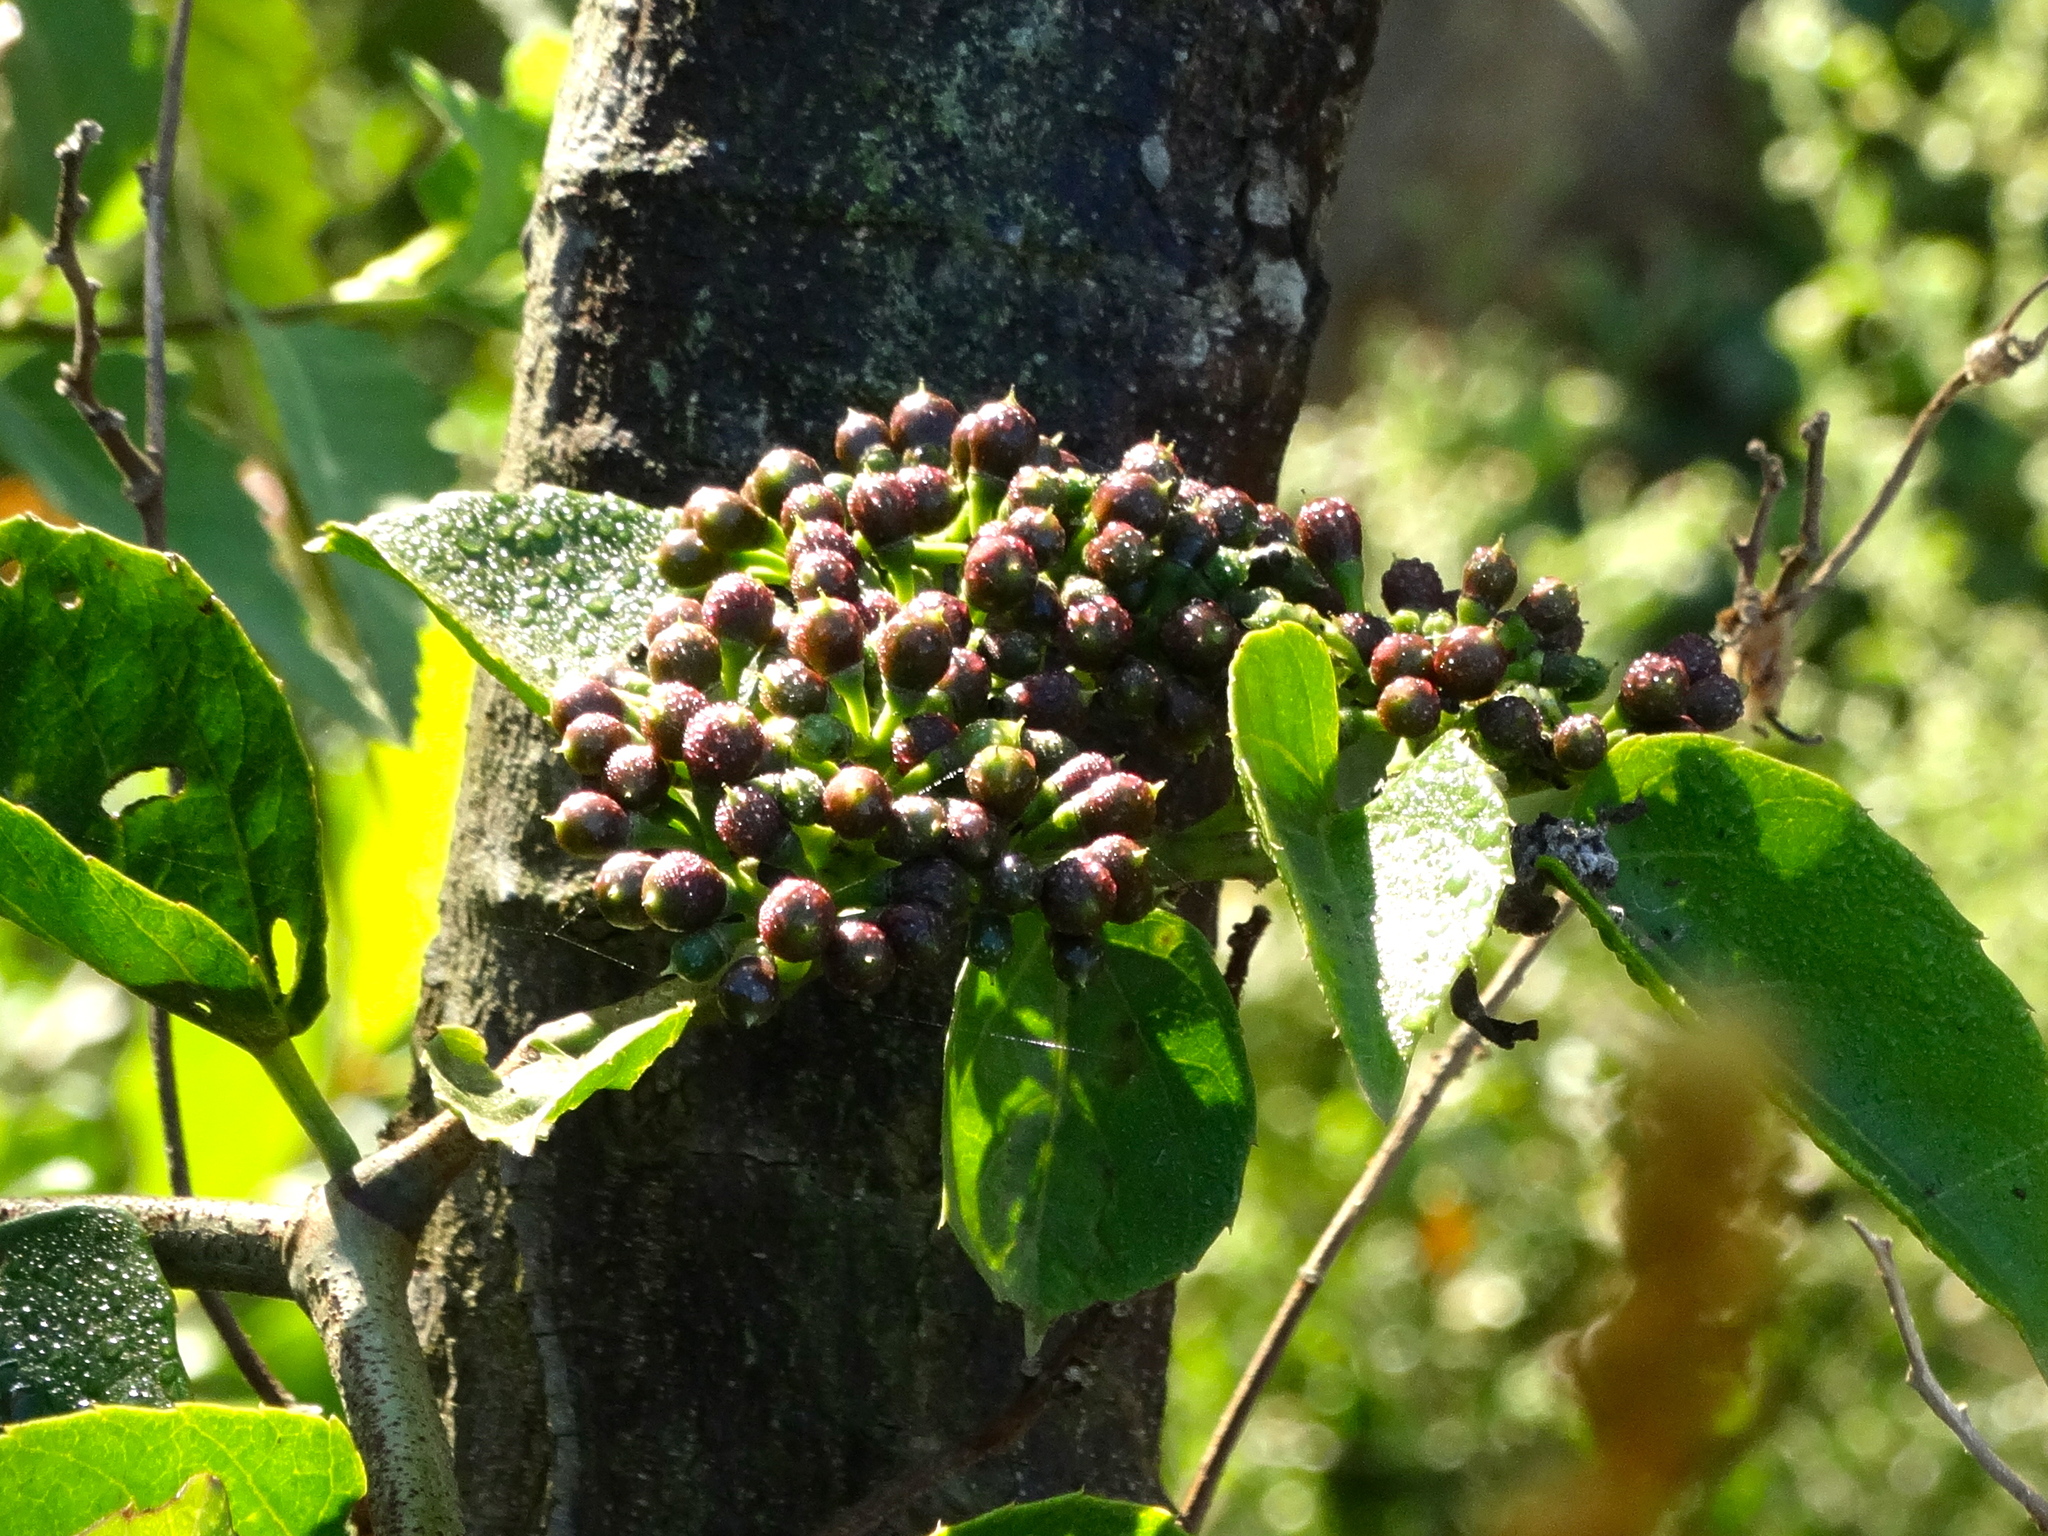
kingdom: Plantae
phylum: Tracheophyta
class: Magnoliopsida
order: Vitales
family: Vitaceae
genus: Cissus
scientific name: Cissus verticillata
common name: Princess vine
